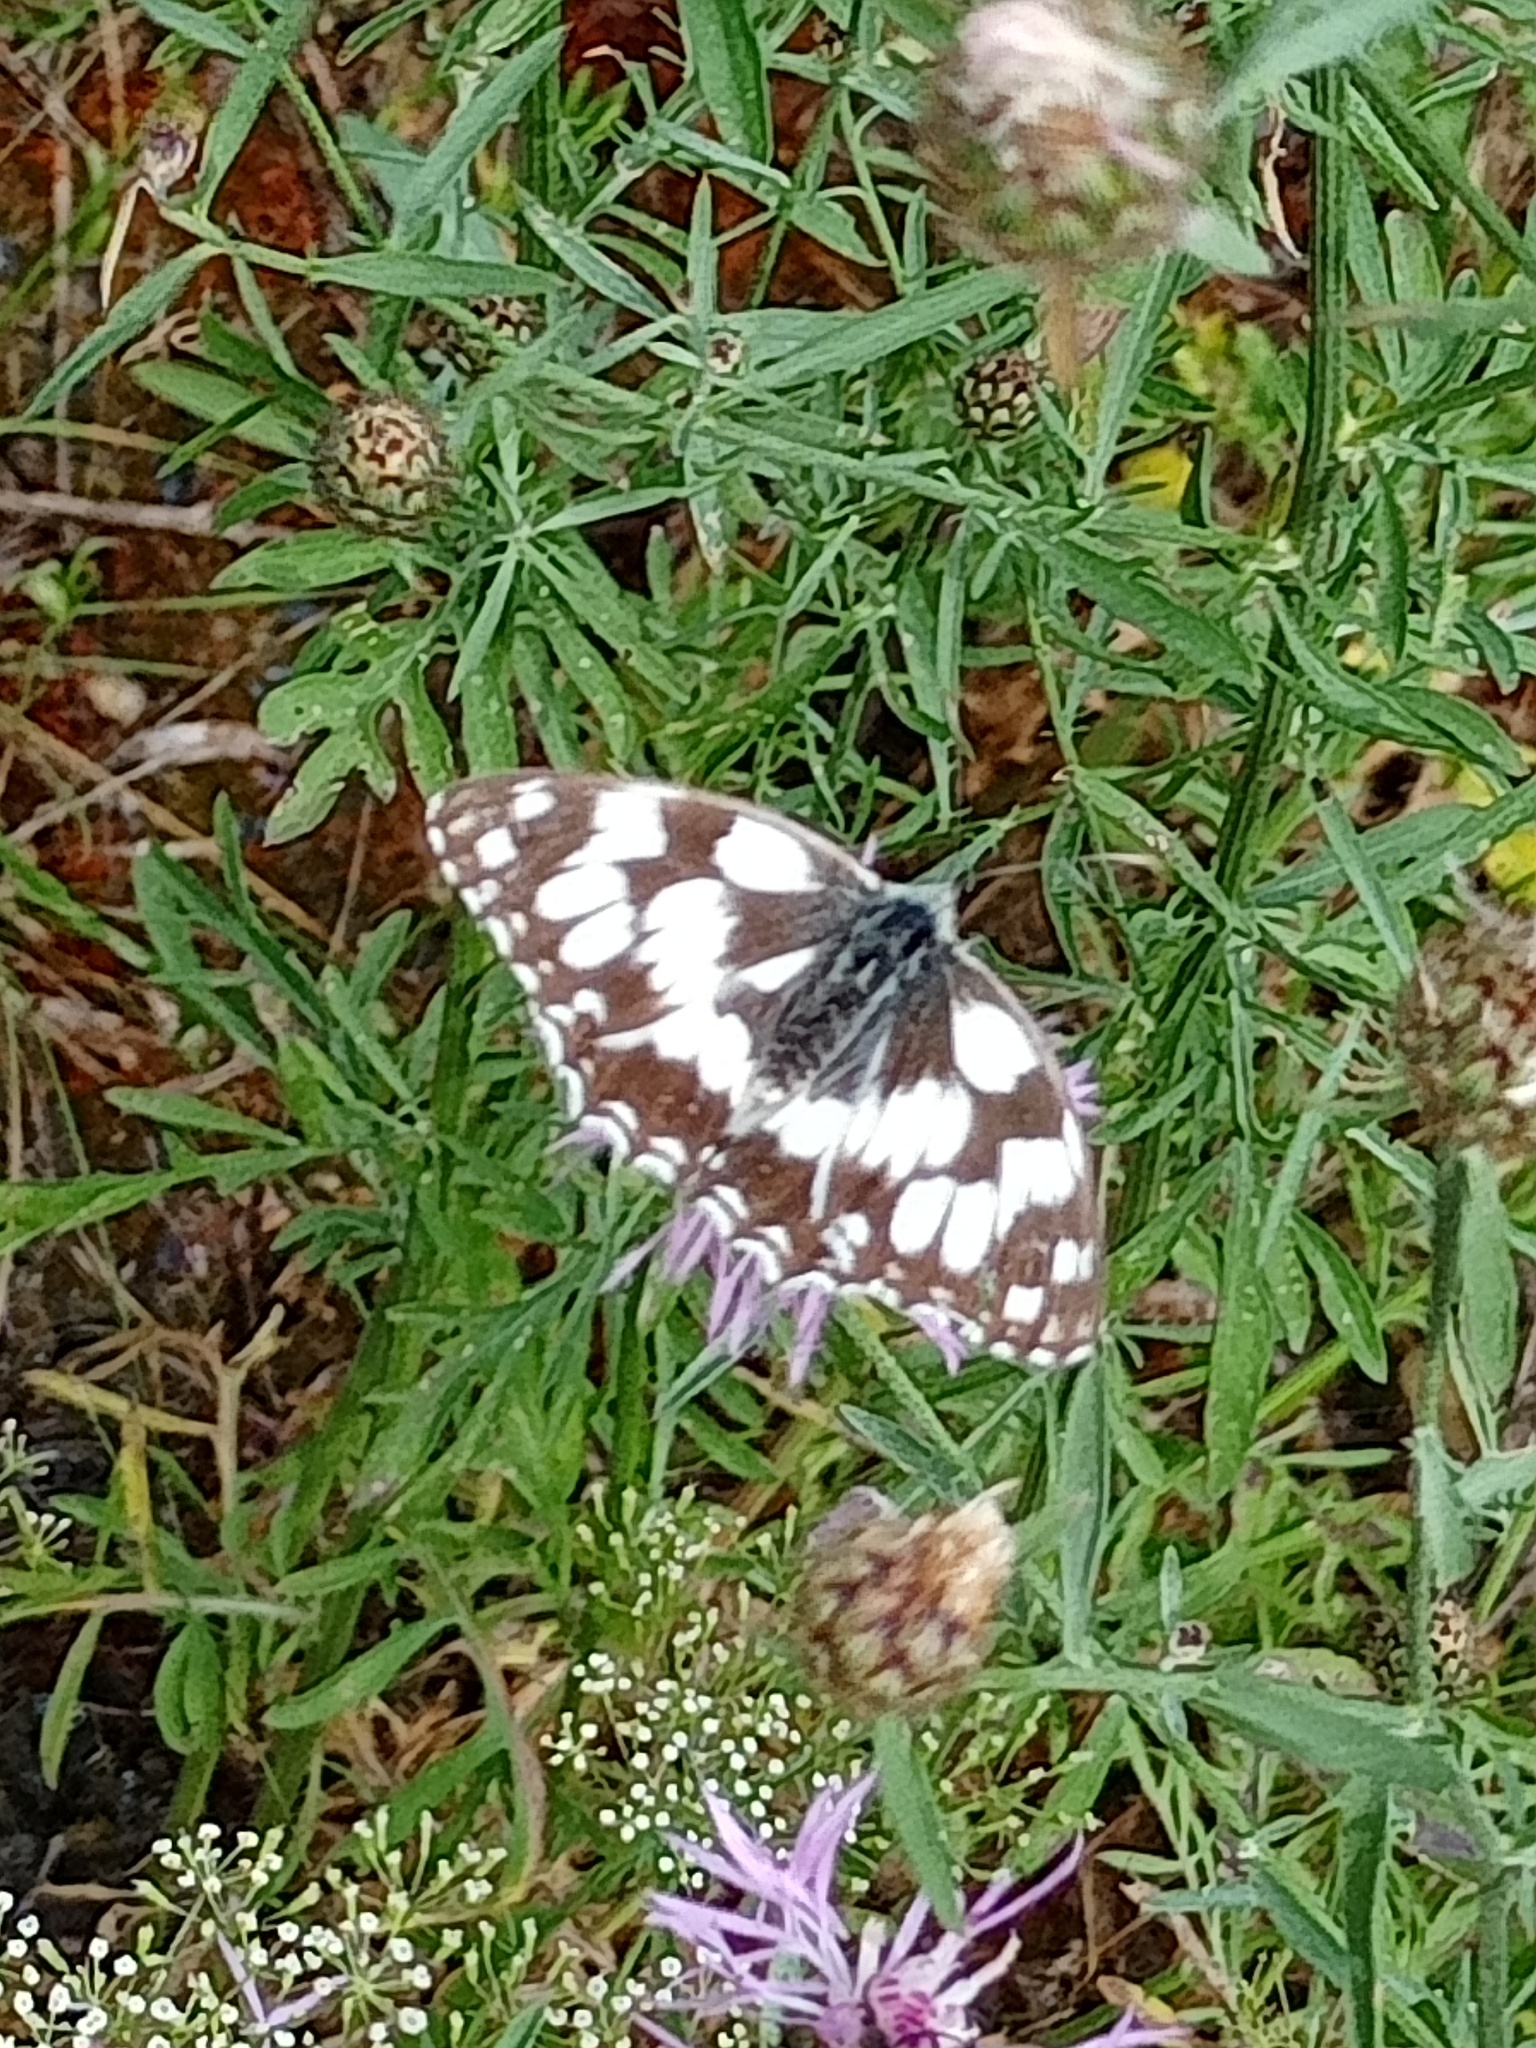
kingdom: Animalia
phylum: Arthropoda
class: Insecta
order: Lepidoptera
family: Nymphalidae
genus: Melanargia
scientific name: Melanargia galathea
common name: Marbled white
